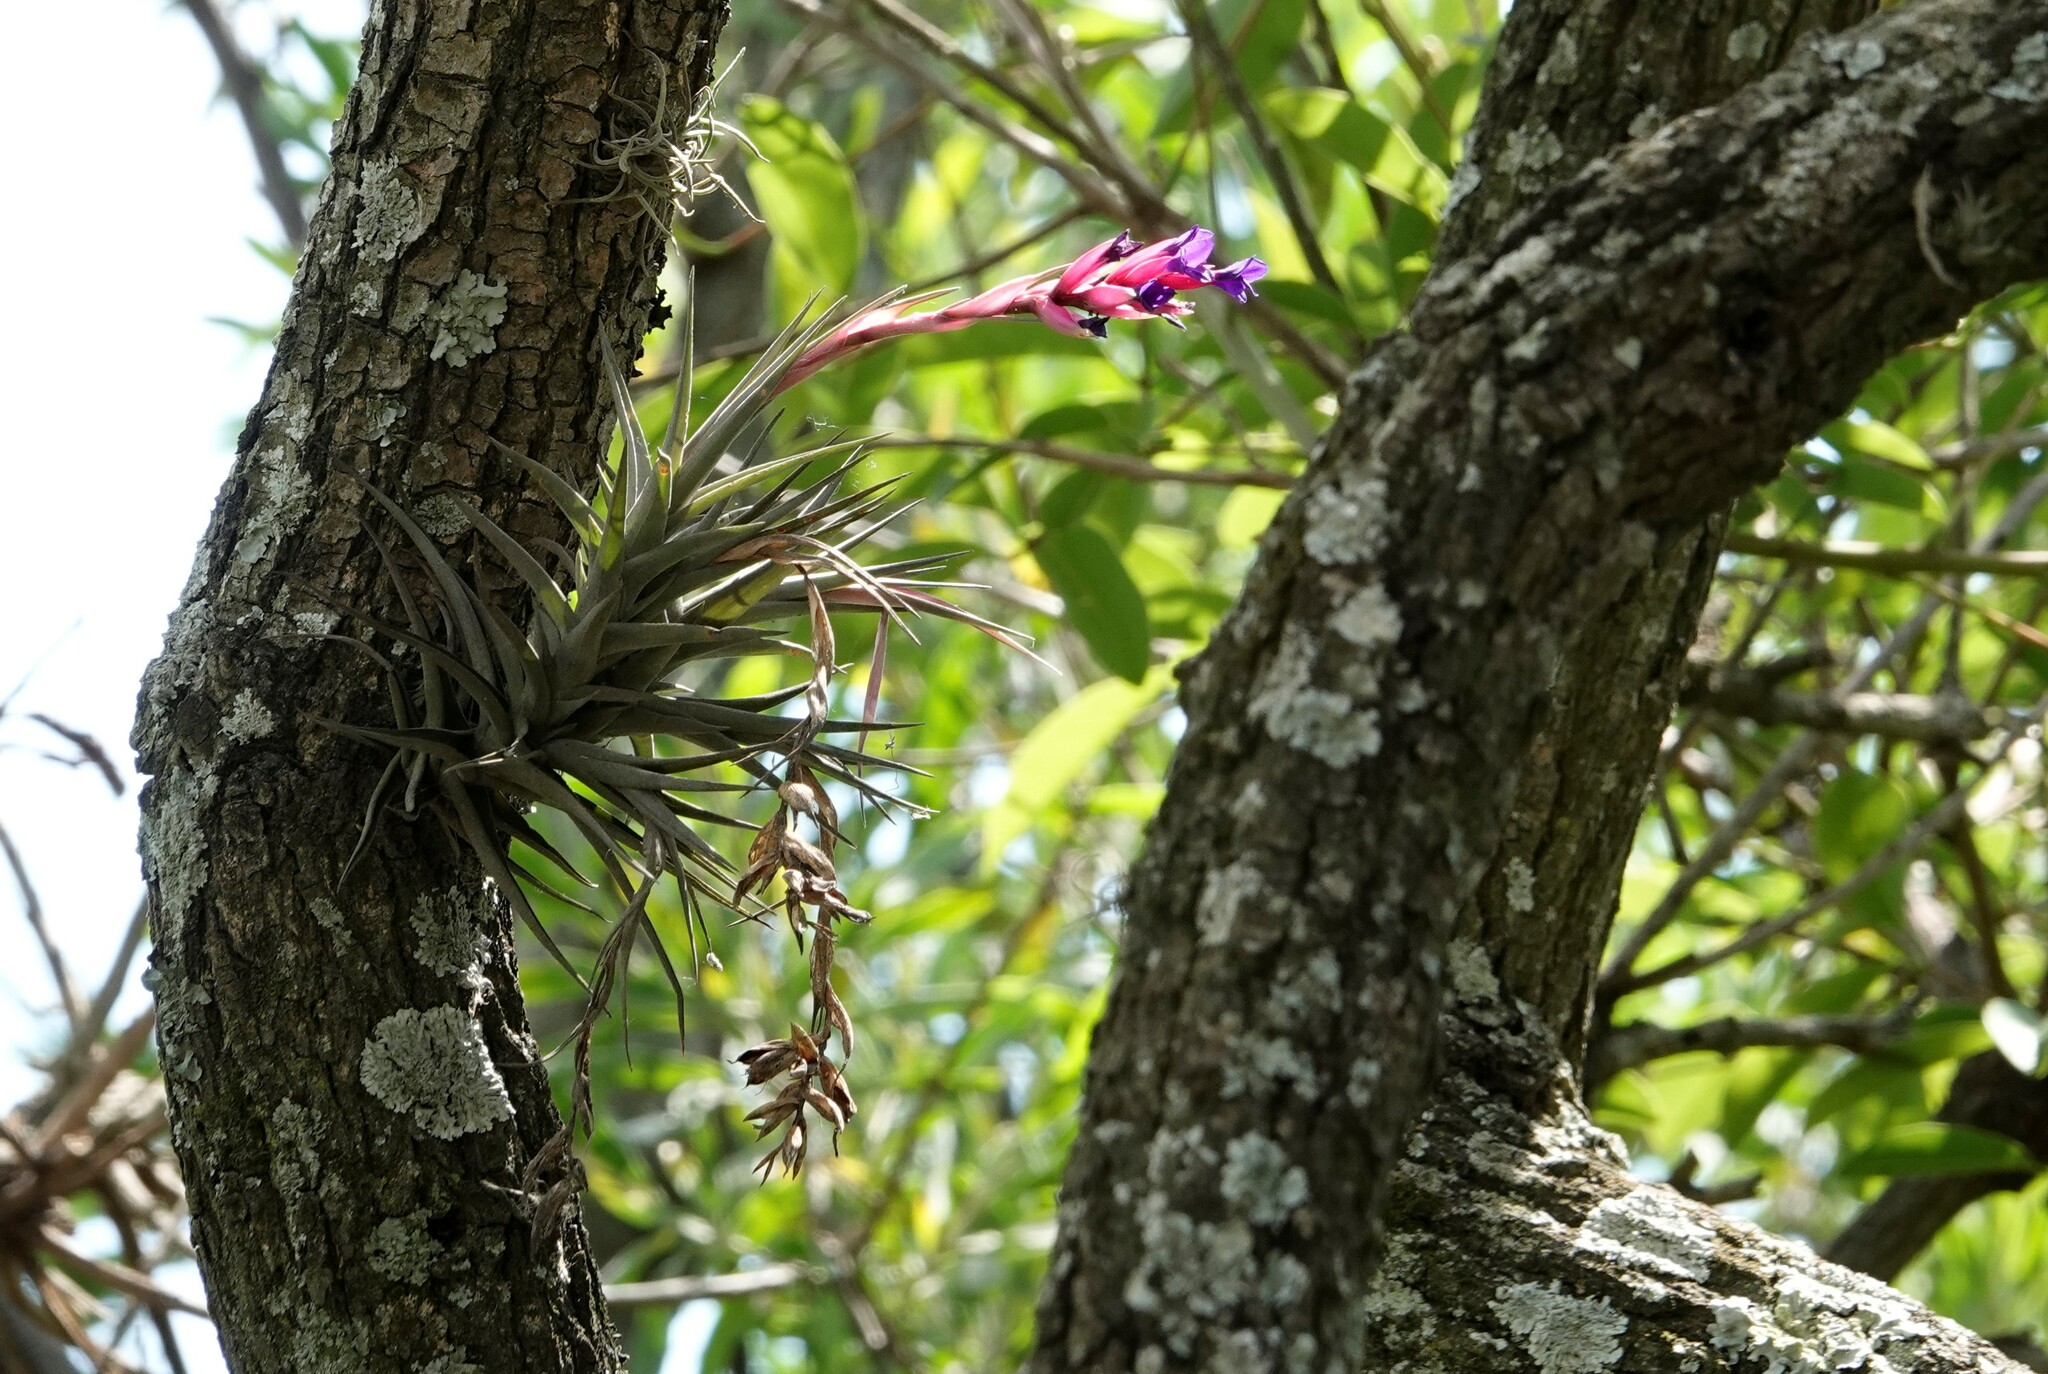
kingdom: Plantae
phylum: Tracheophyta
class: Liliopsida
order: Poales
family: Bromeliaceae
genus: Tillandsia
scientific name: Tillandsia aeranthos
